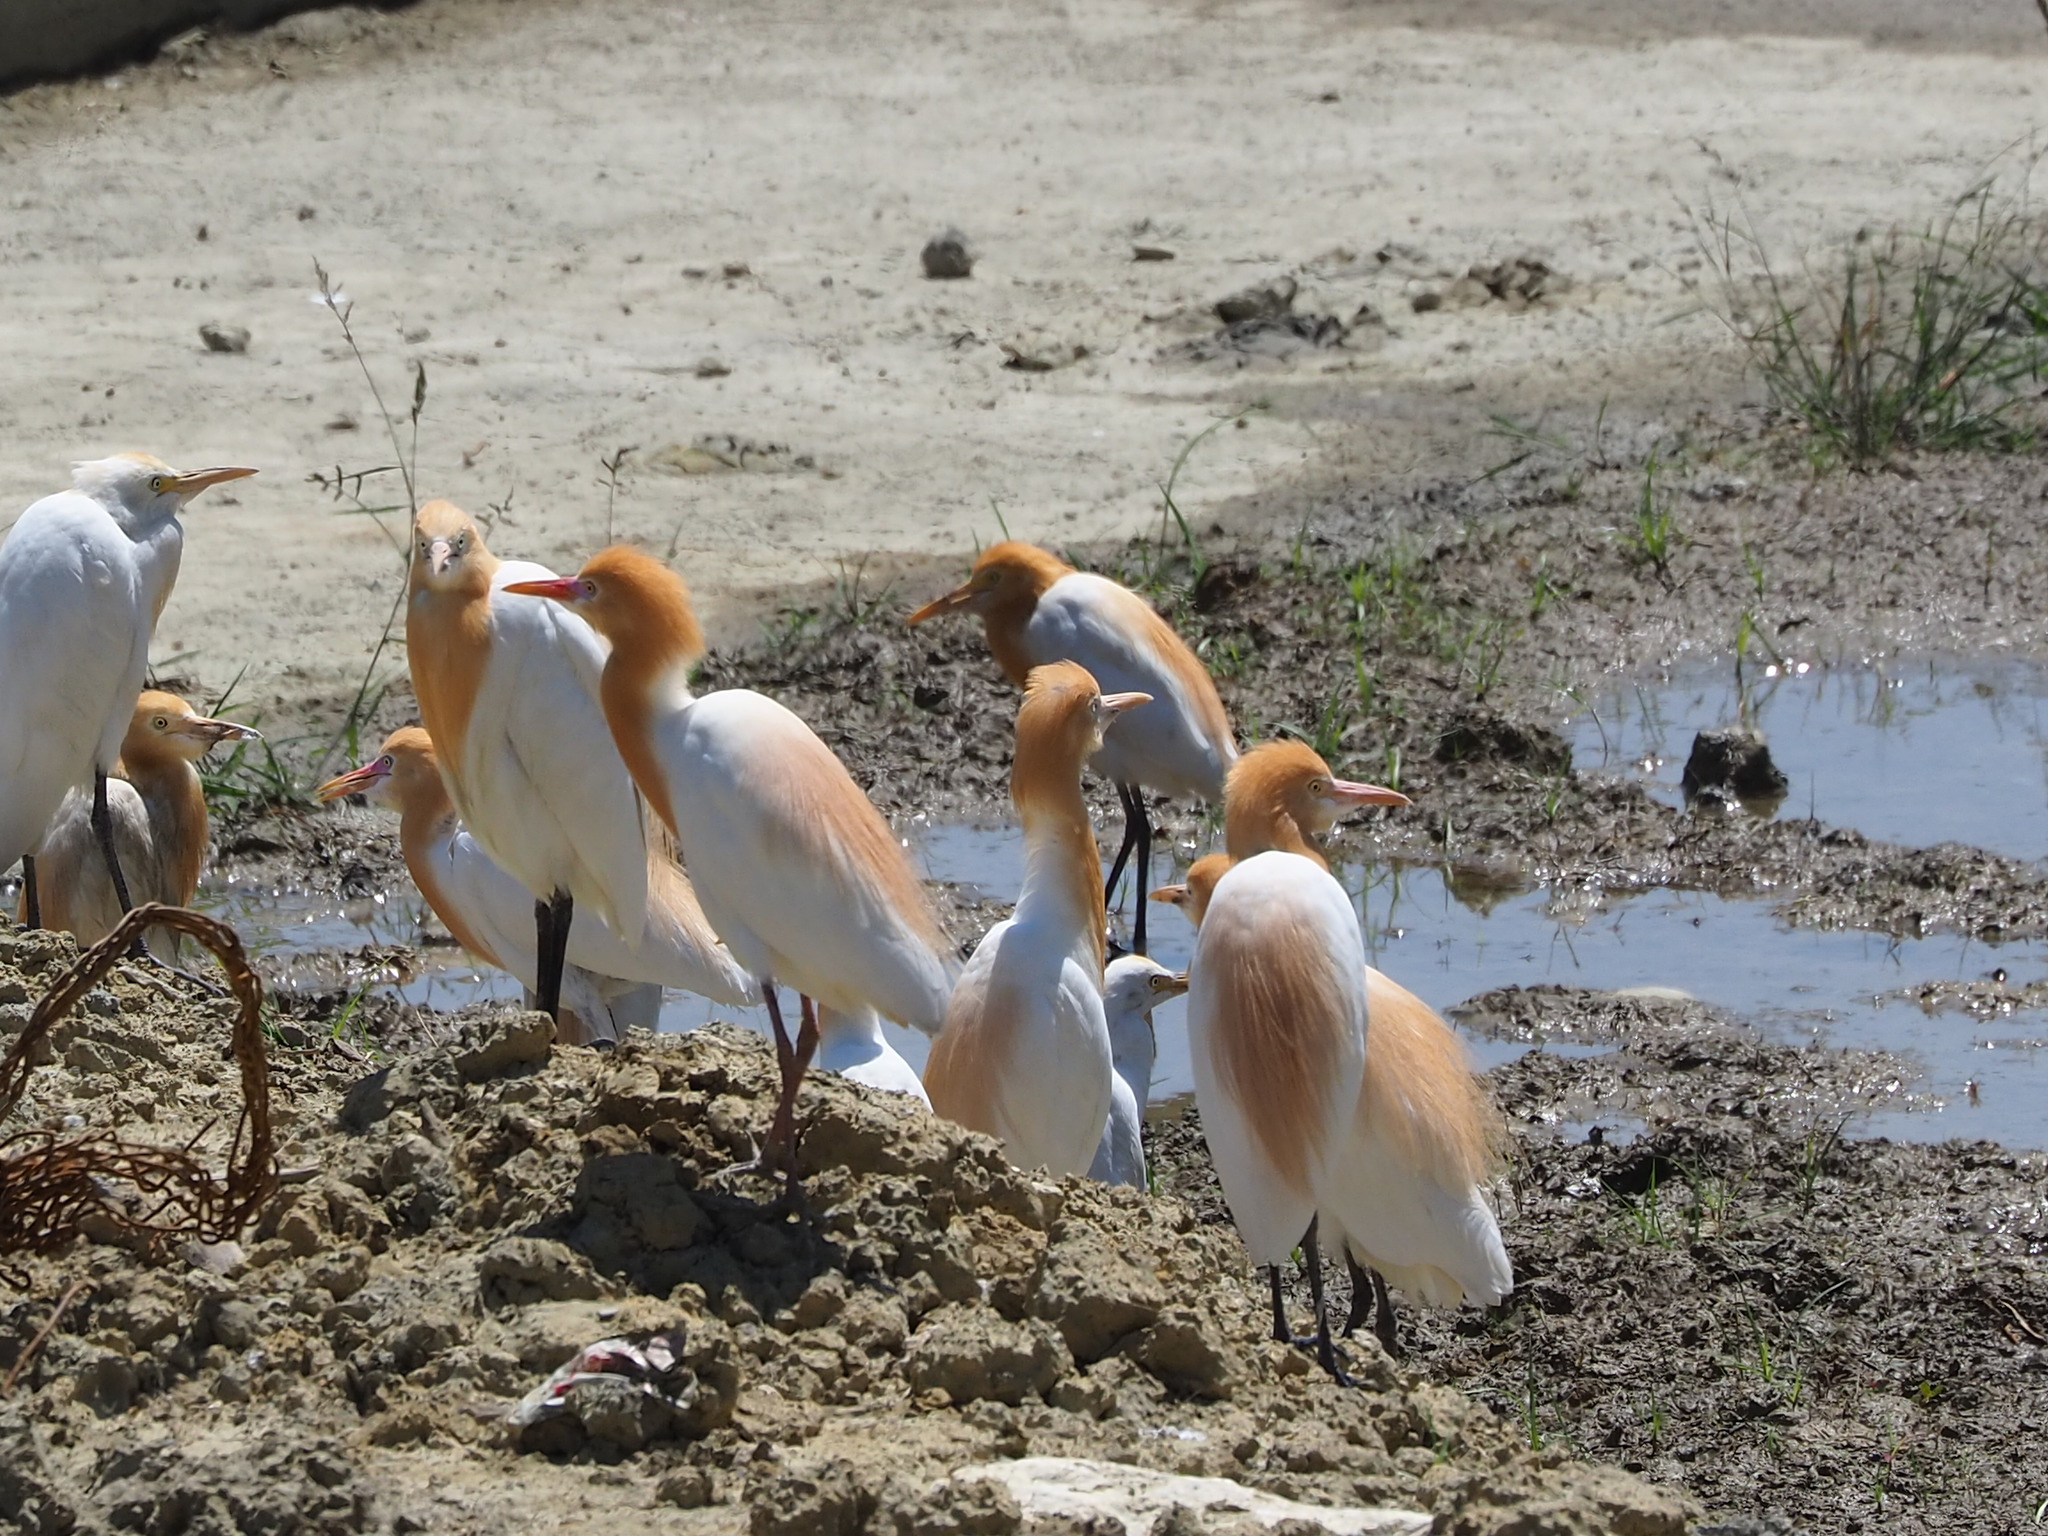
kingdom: Animalia
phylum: Chordata
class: Aves
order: Pelecaniformes
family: Ardeidae
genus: Bubulcus
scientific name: Bubulcus coromandus
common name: Eastern cattle egret
